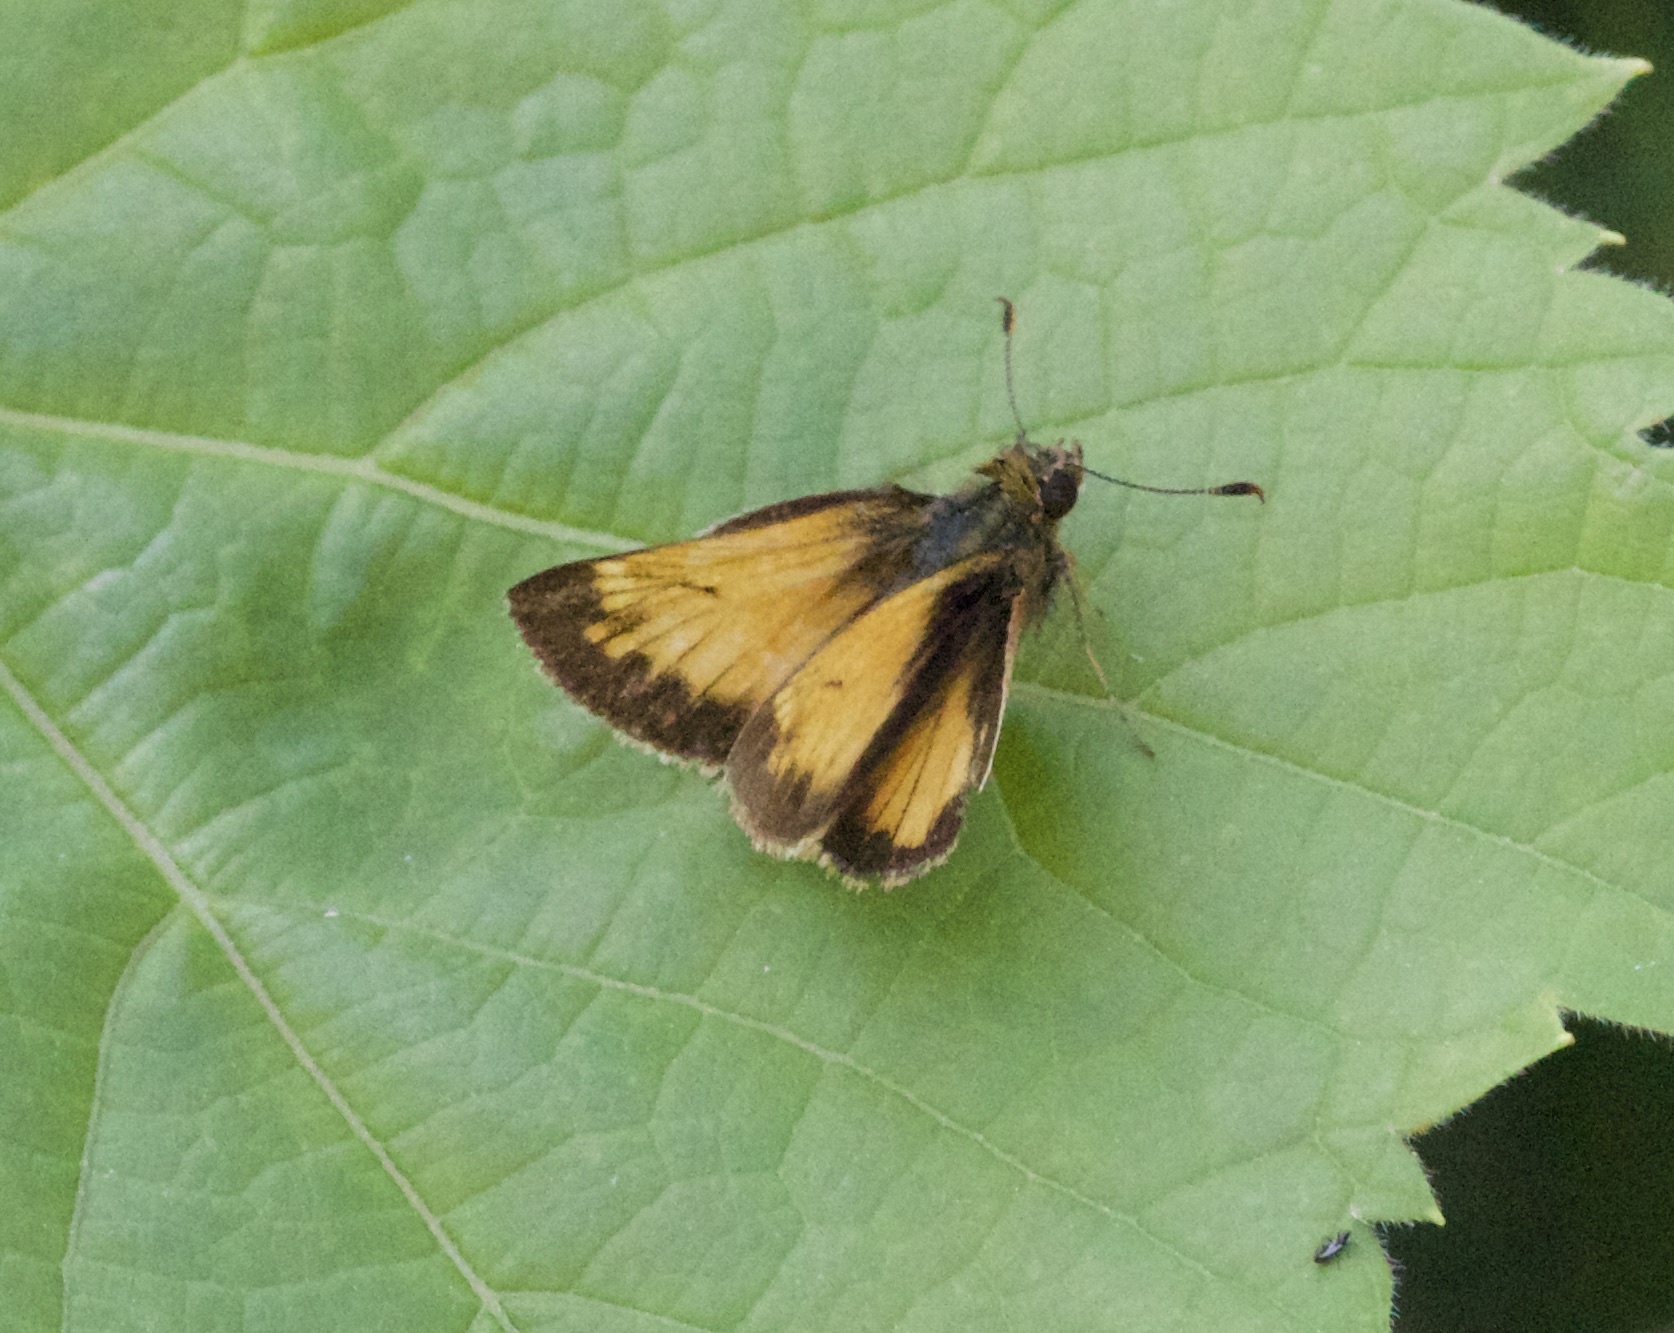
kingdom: Animalia
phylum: Arthropoda
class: Insecta
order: Lepidoptera
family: Hesperiidae
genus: Lon
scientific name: Lon hobomok
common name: Hobomok skipper
